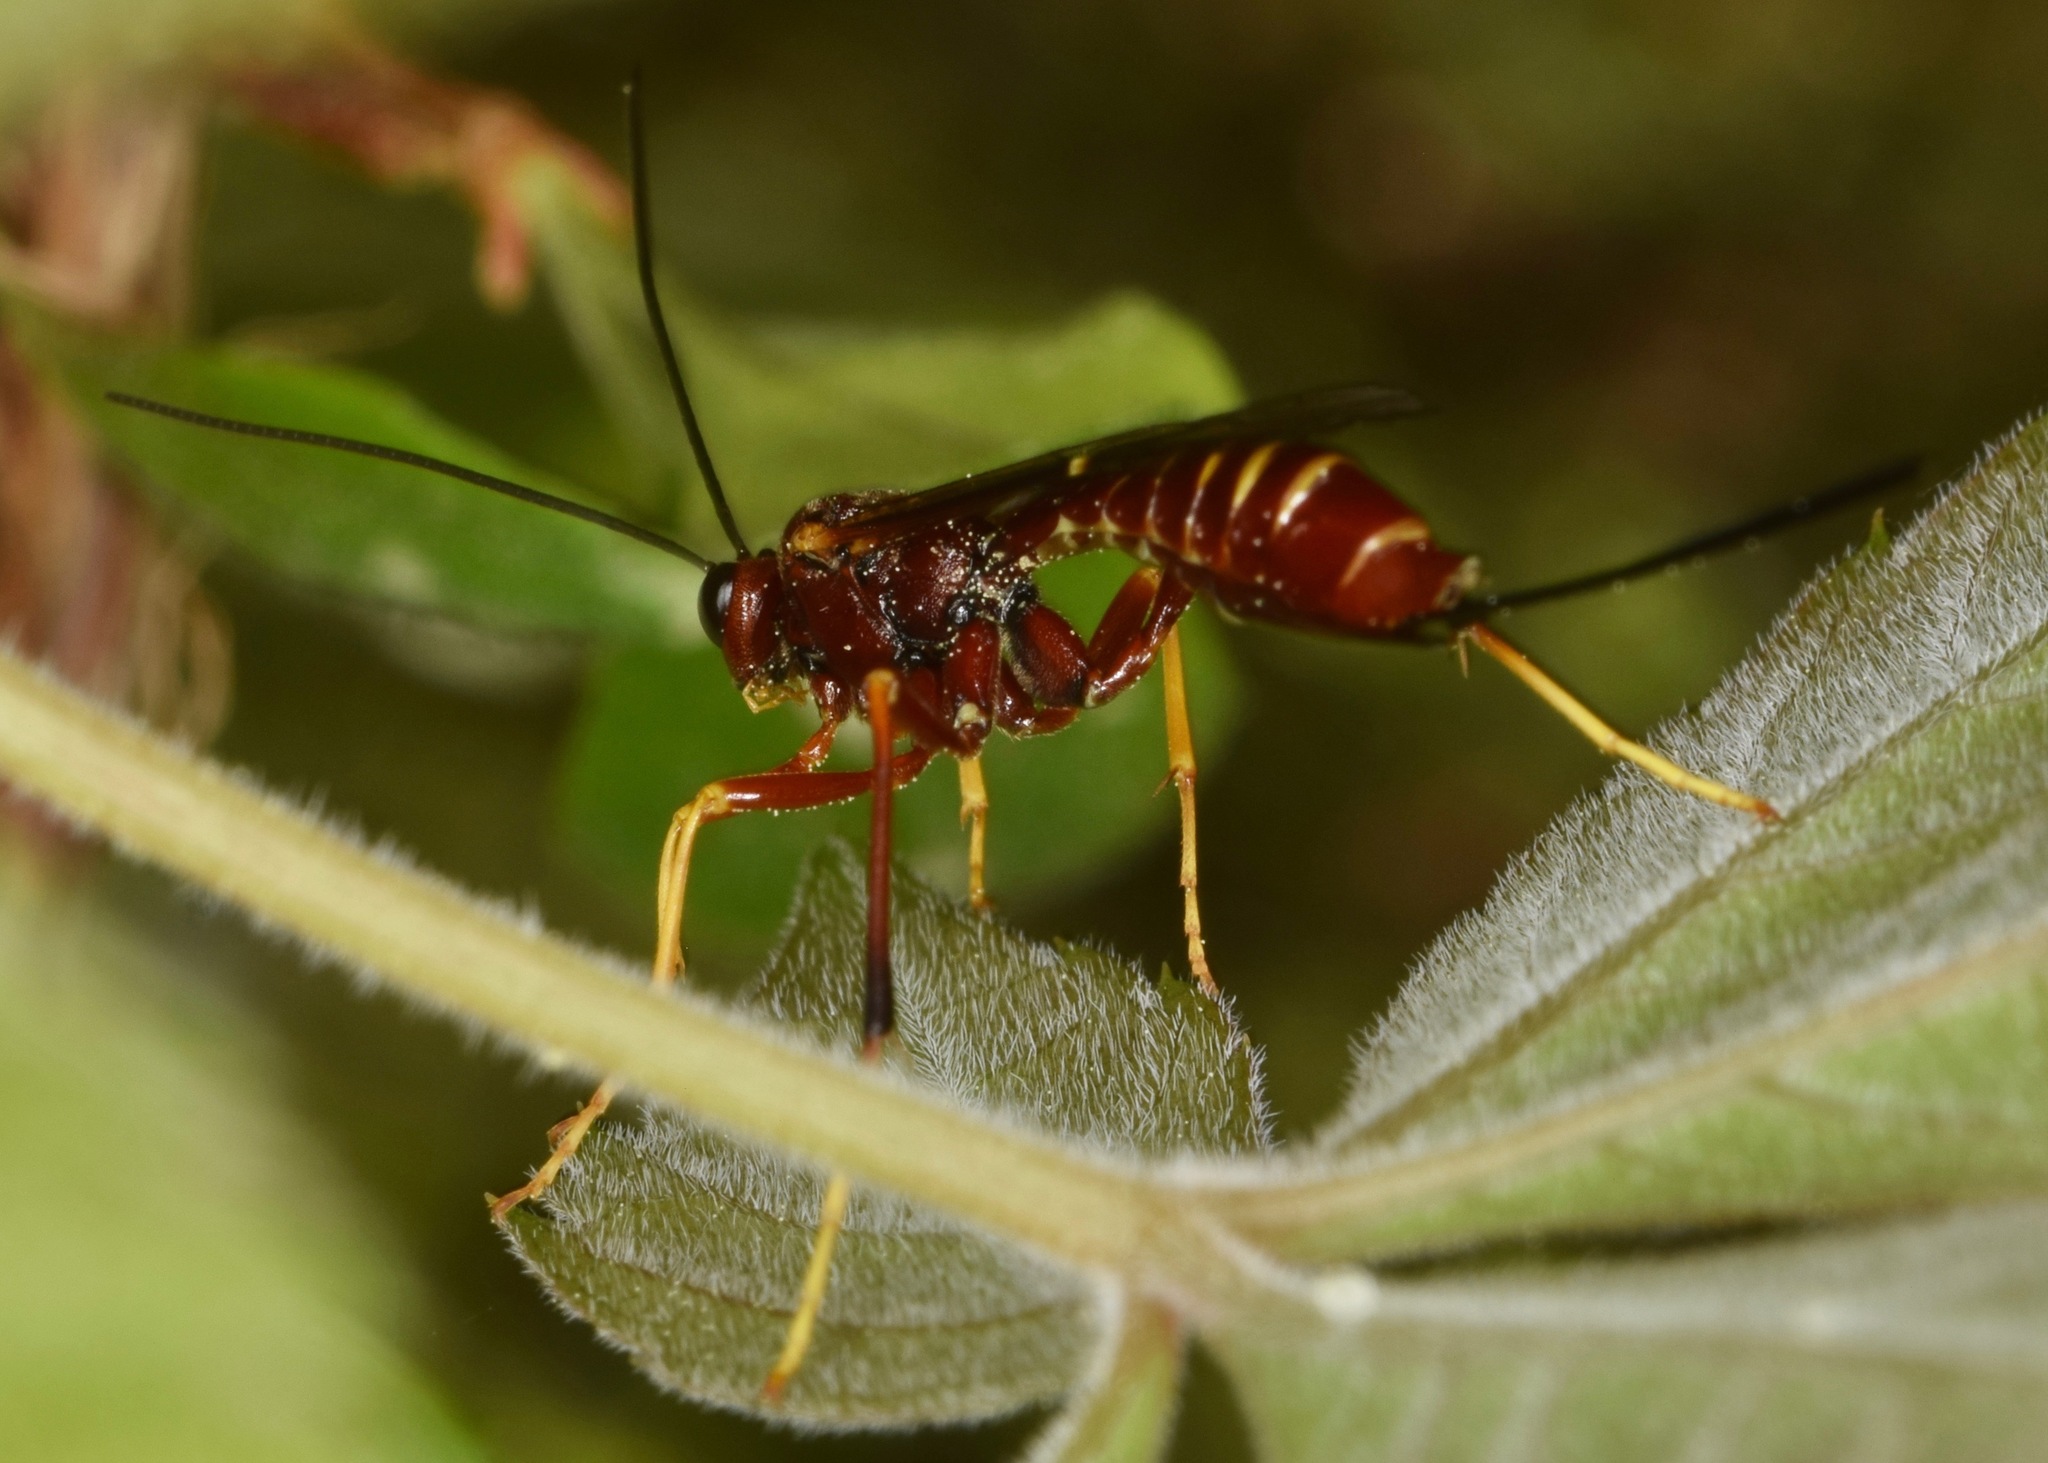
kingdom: Animalia
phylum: Arthropoda
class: Insecta
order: Hymenoptera
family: Ichneumonidae
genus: Coleocentrus
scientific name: Coleocentrus rufus
